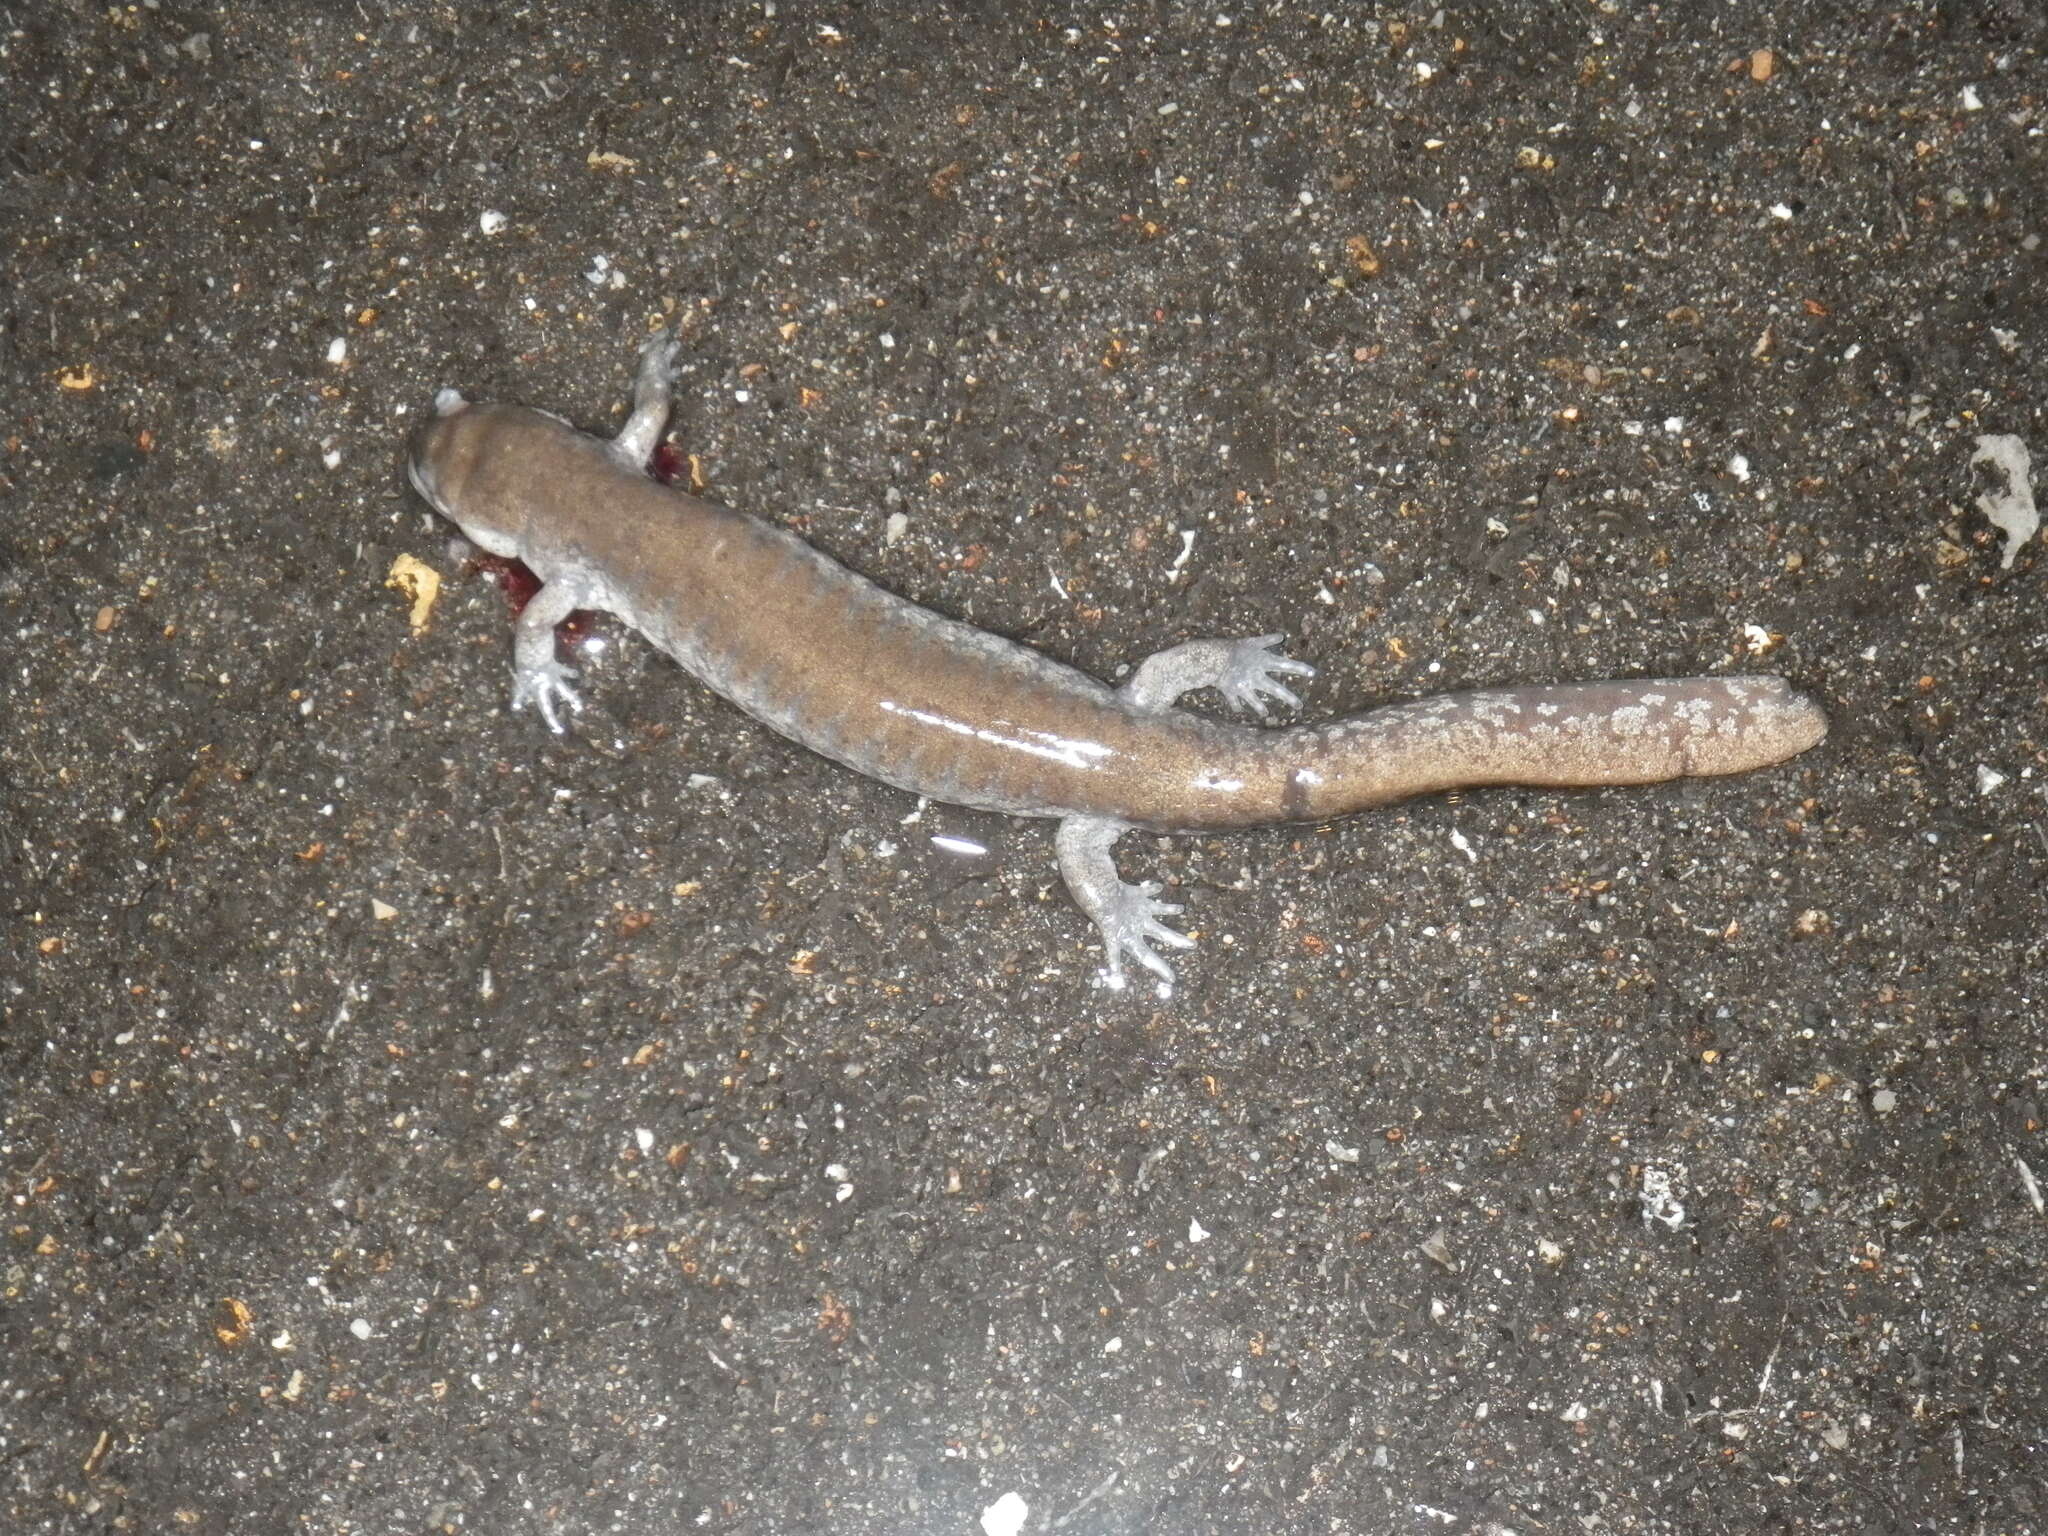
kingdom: Animalia
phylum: Chordata
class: Amphibia
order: Caudata
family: Ambystomatidae
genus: Ambystoma
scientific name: Ambystoma texanum
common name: Small-mouth salamander
